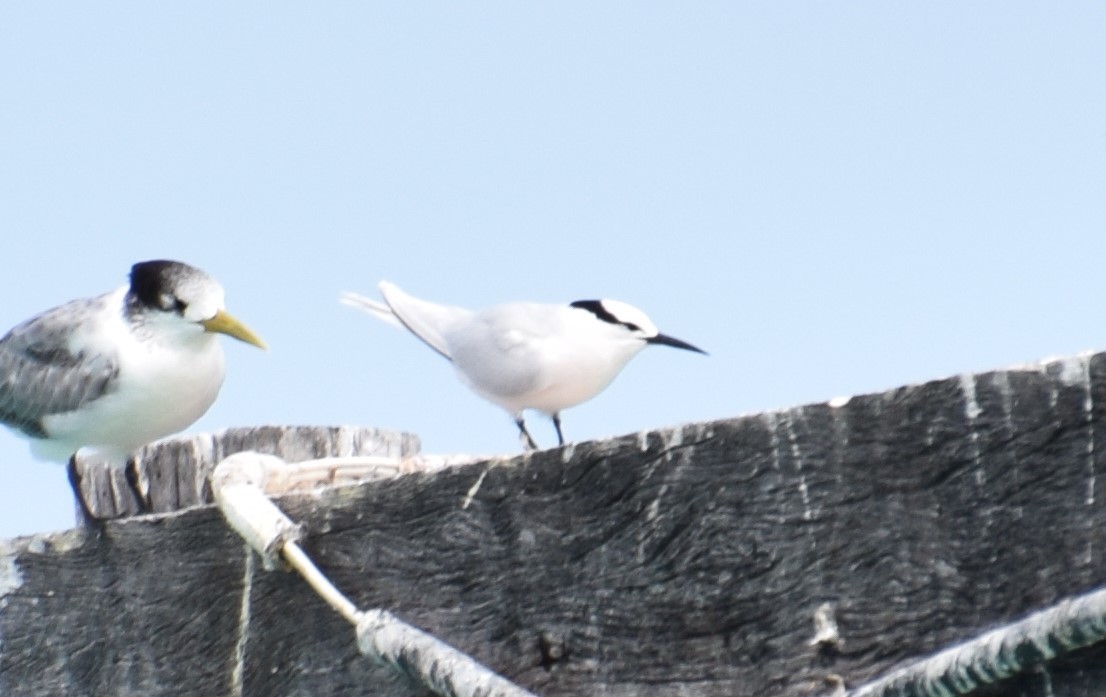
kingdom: Animalia
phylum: Chordata
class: Aves
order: Charadriiformes
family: Laridae
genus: Sterna
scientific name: Sterna sumatrana
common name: Black-naped tern
